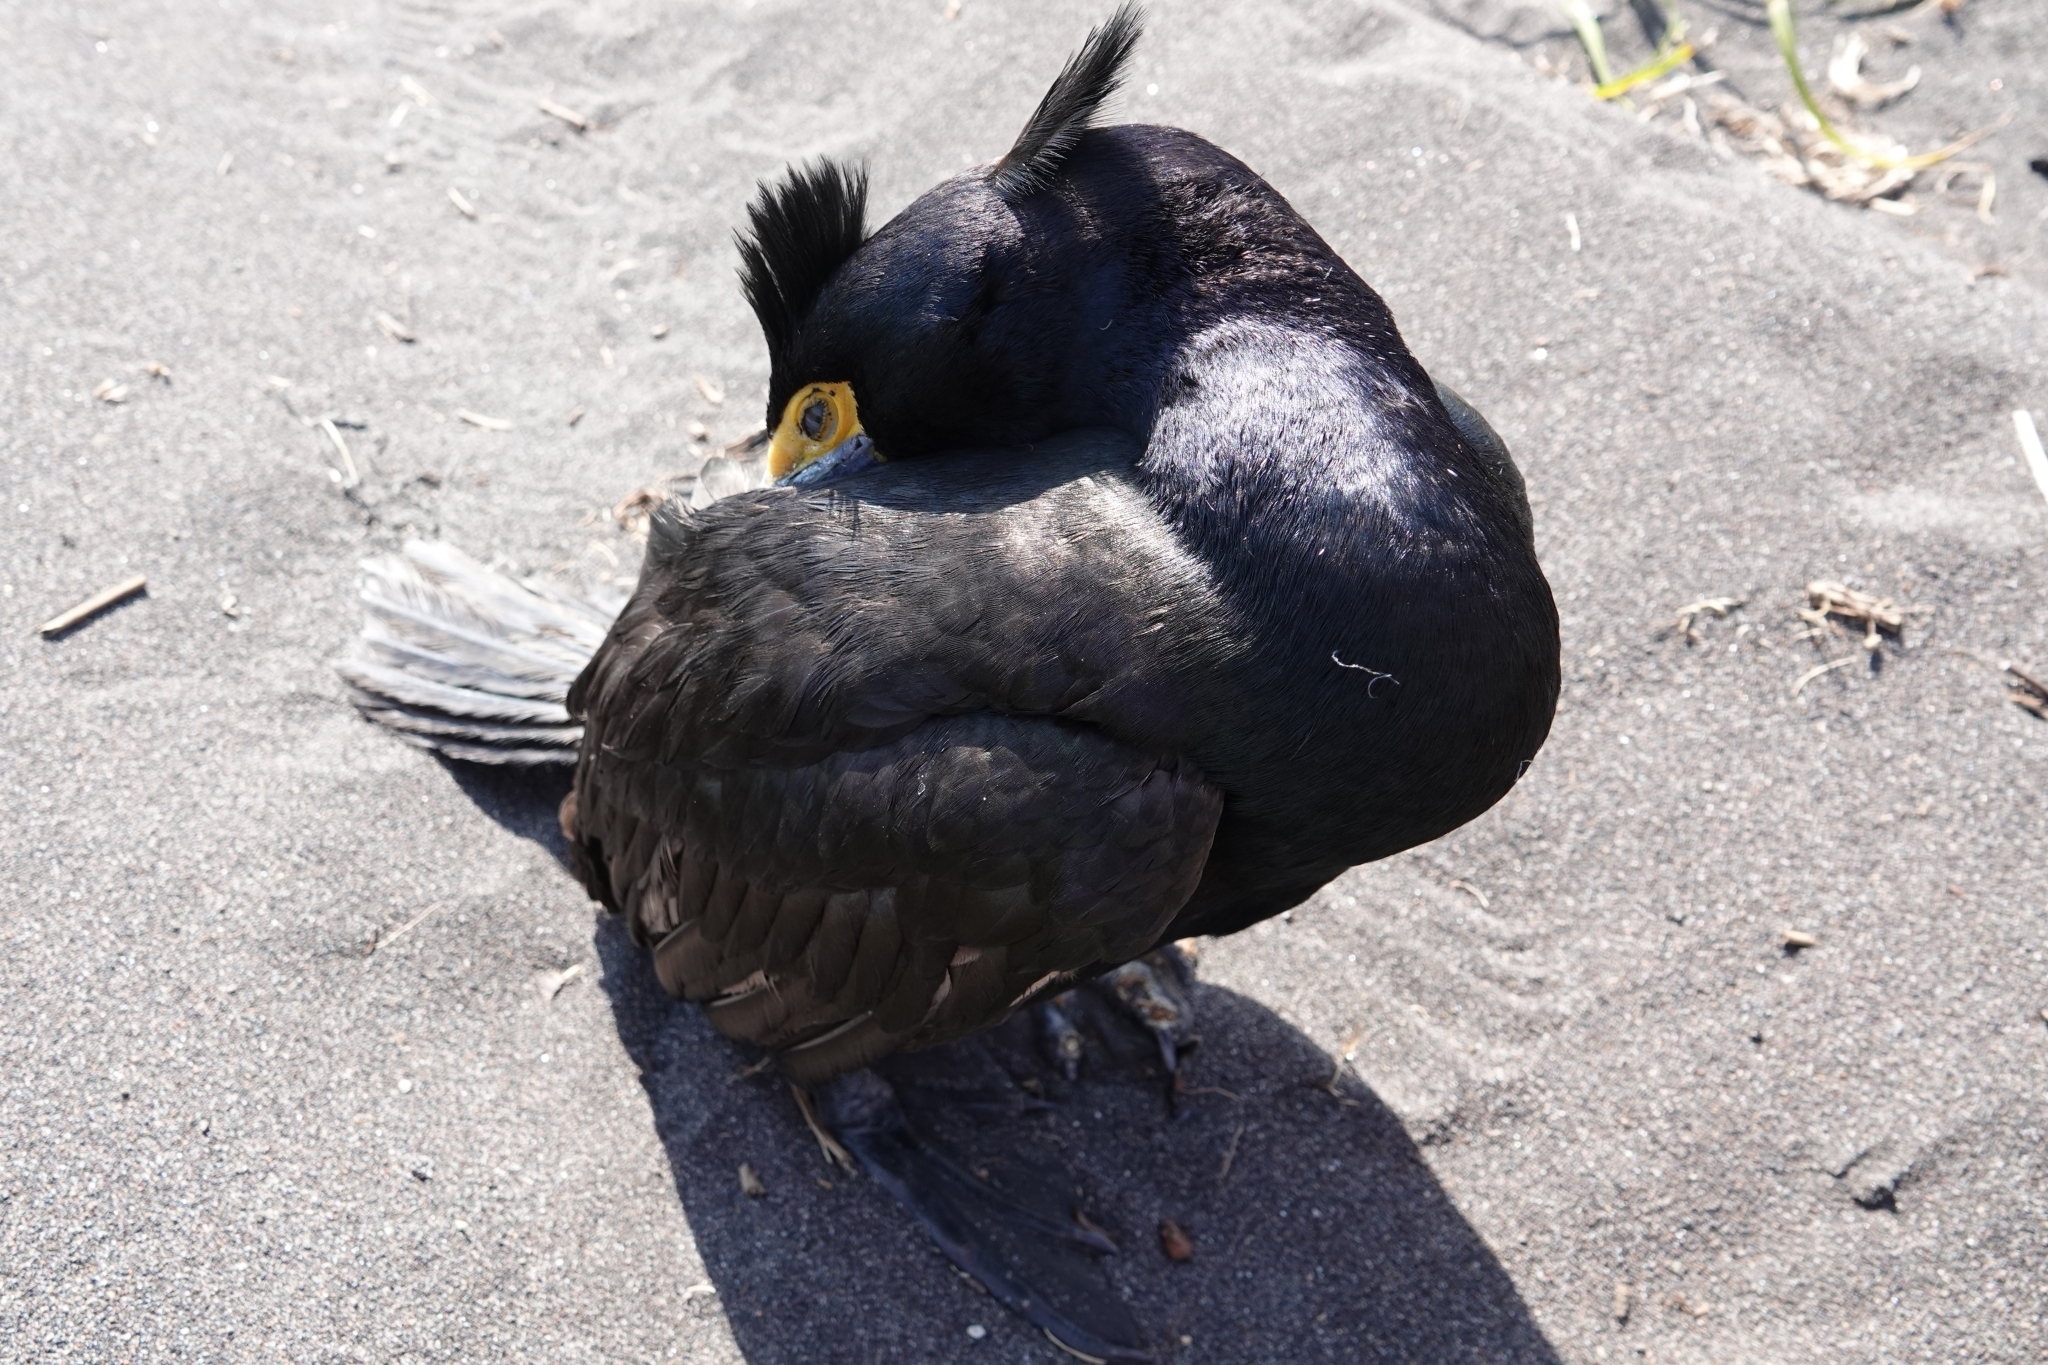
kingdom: Animalia
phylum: Chordata
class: Aves
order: Suliformes
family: Phalacrocoracidae
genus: Phalacrocorax
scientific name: Phalacrocorax urile
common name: Red-faced cormorant
